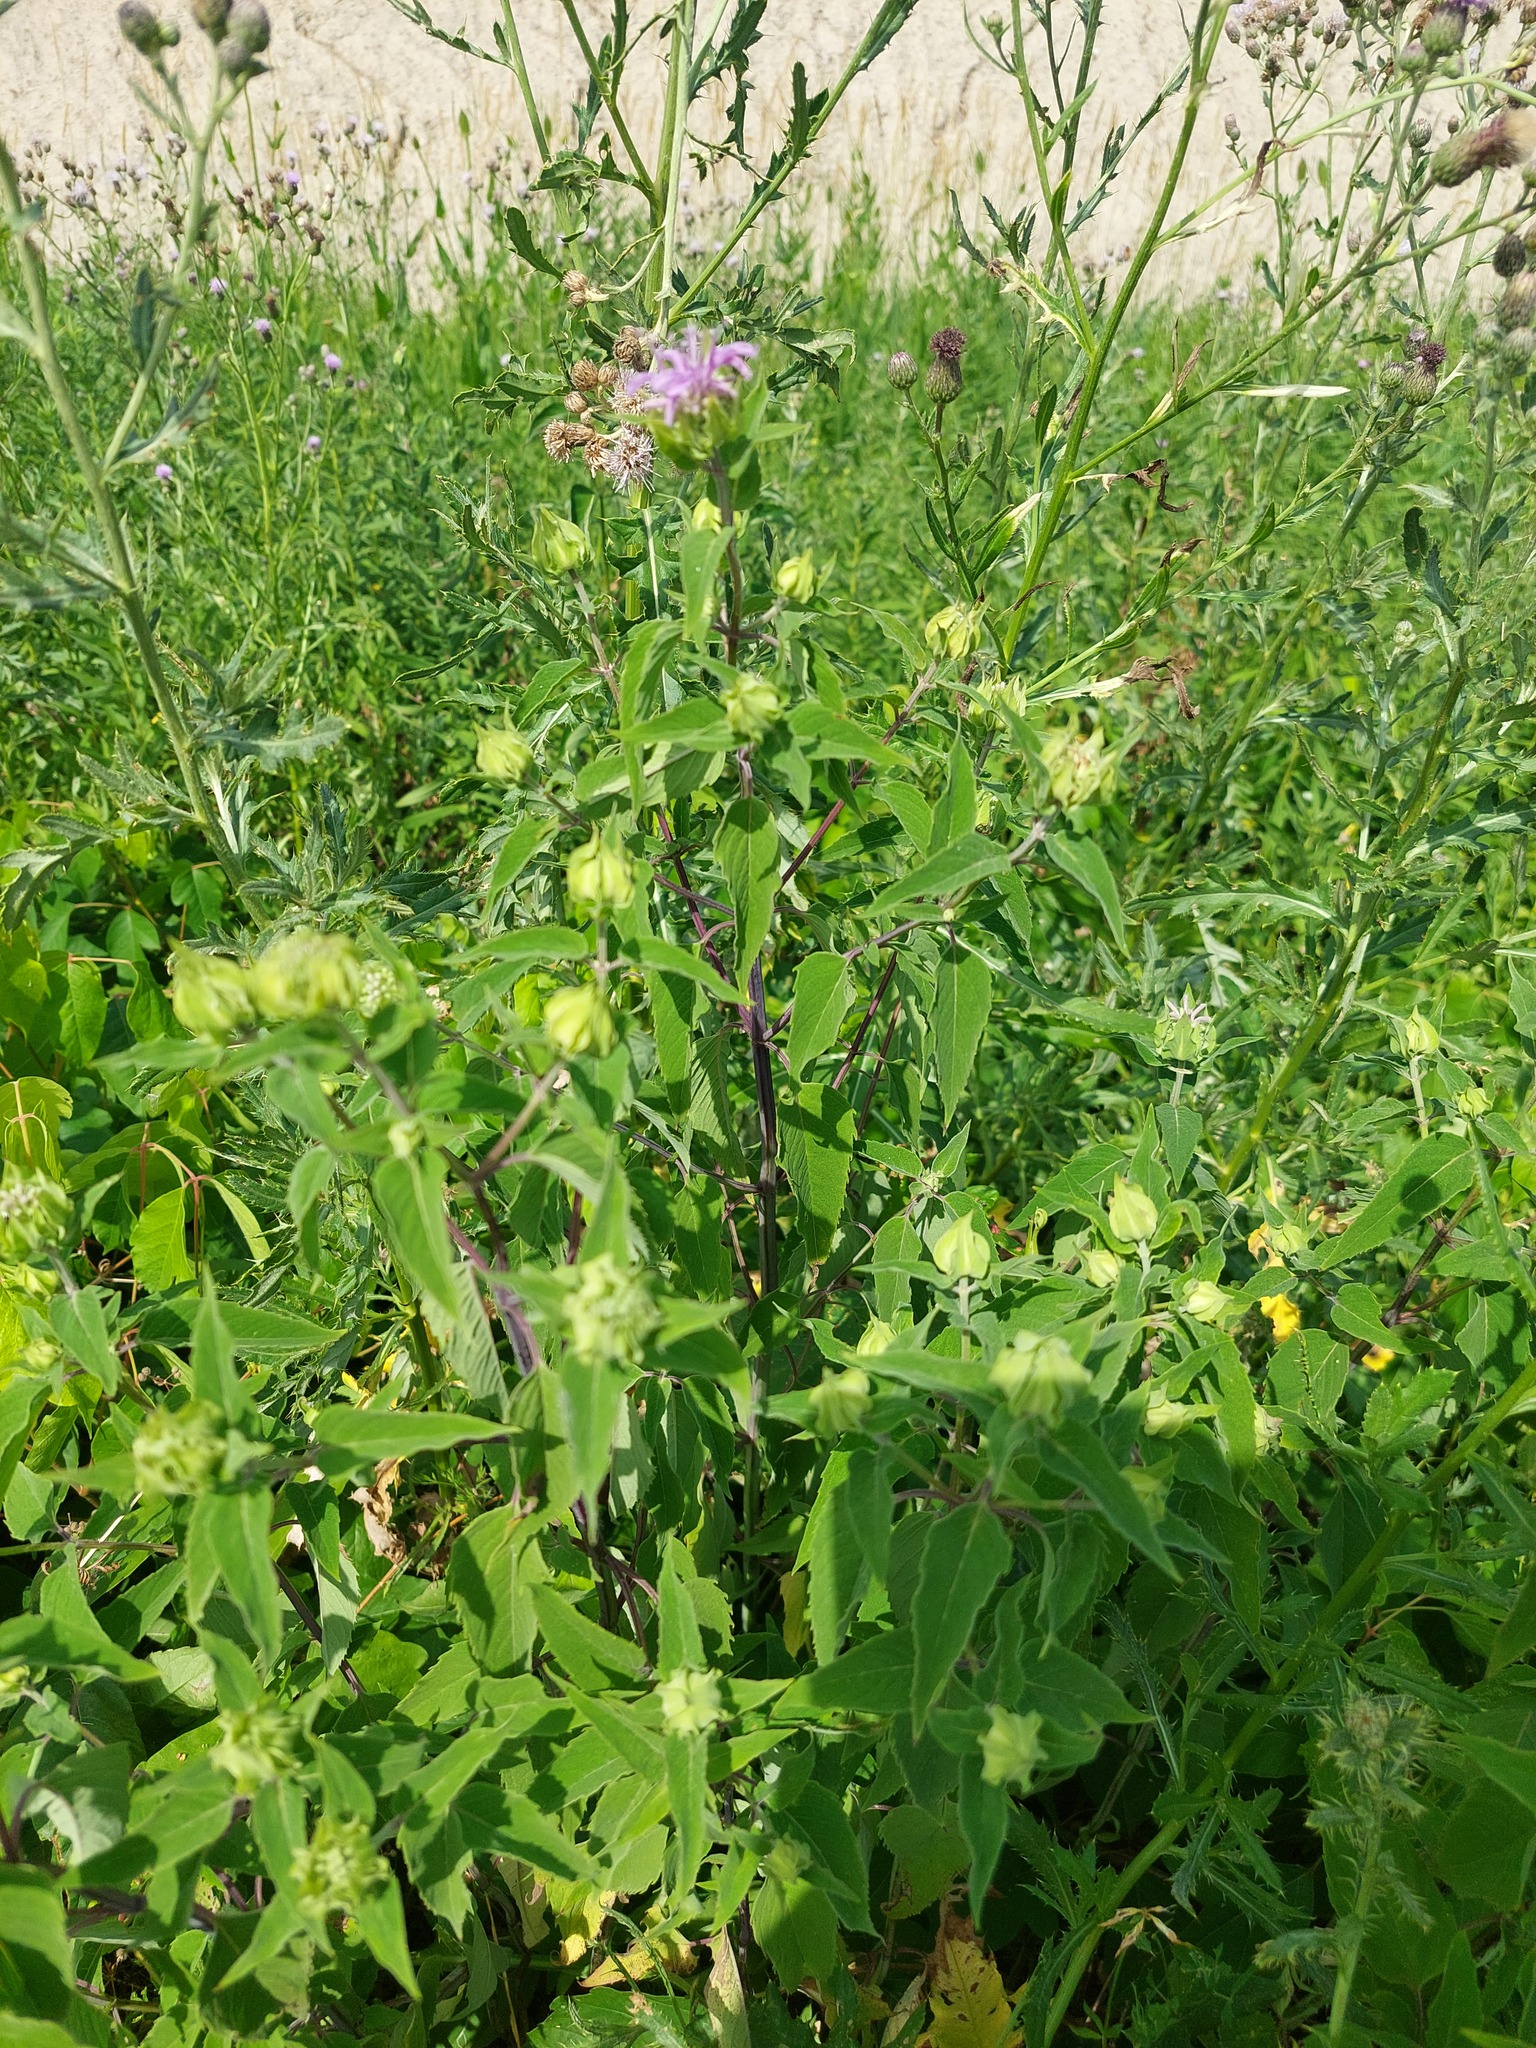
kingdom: Plantae
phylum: Tracheophyta
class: Magnoliopsida
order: Lamiales
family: Lamiaceae
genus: Monarda
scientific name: Monarda fistulosa
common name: Purple beebalm
